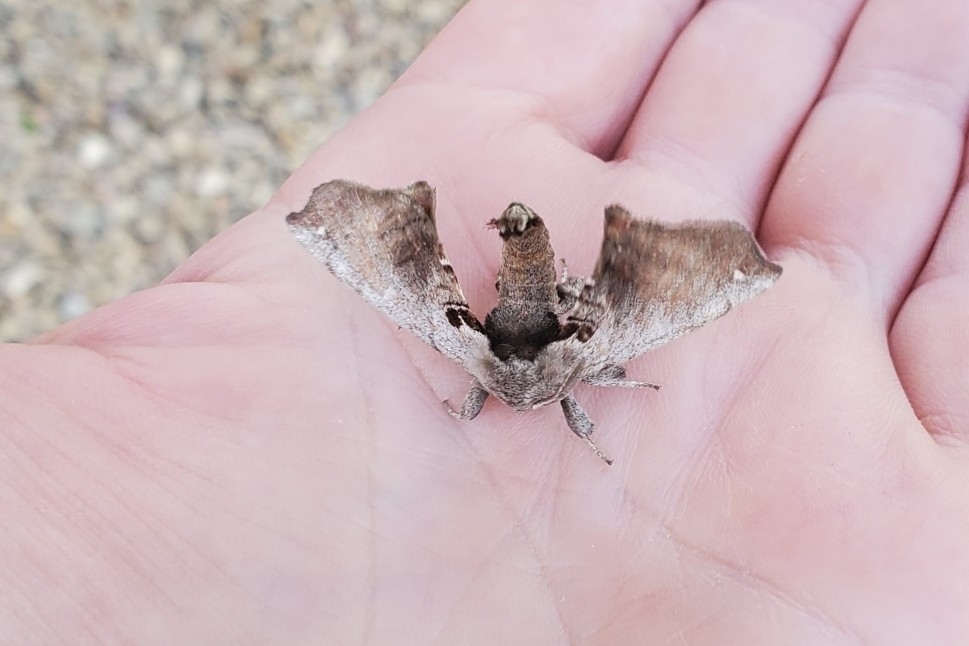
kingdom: Animalia
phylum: Arthropoda
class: Insecta
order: Lepidoptera
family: Apatelodidae
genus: Hygrochroa
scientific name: Hygrochroa Apatelodes torrefacta
